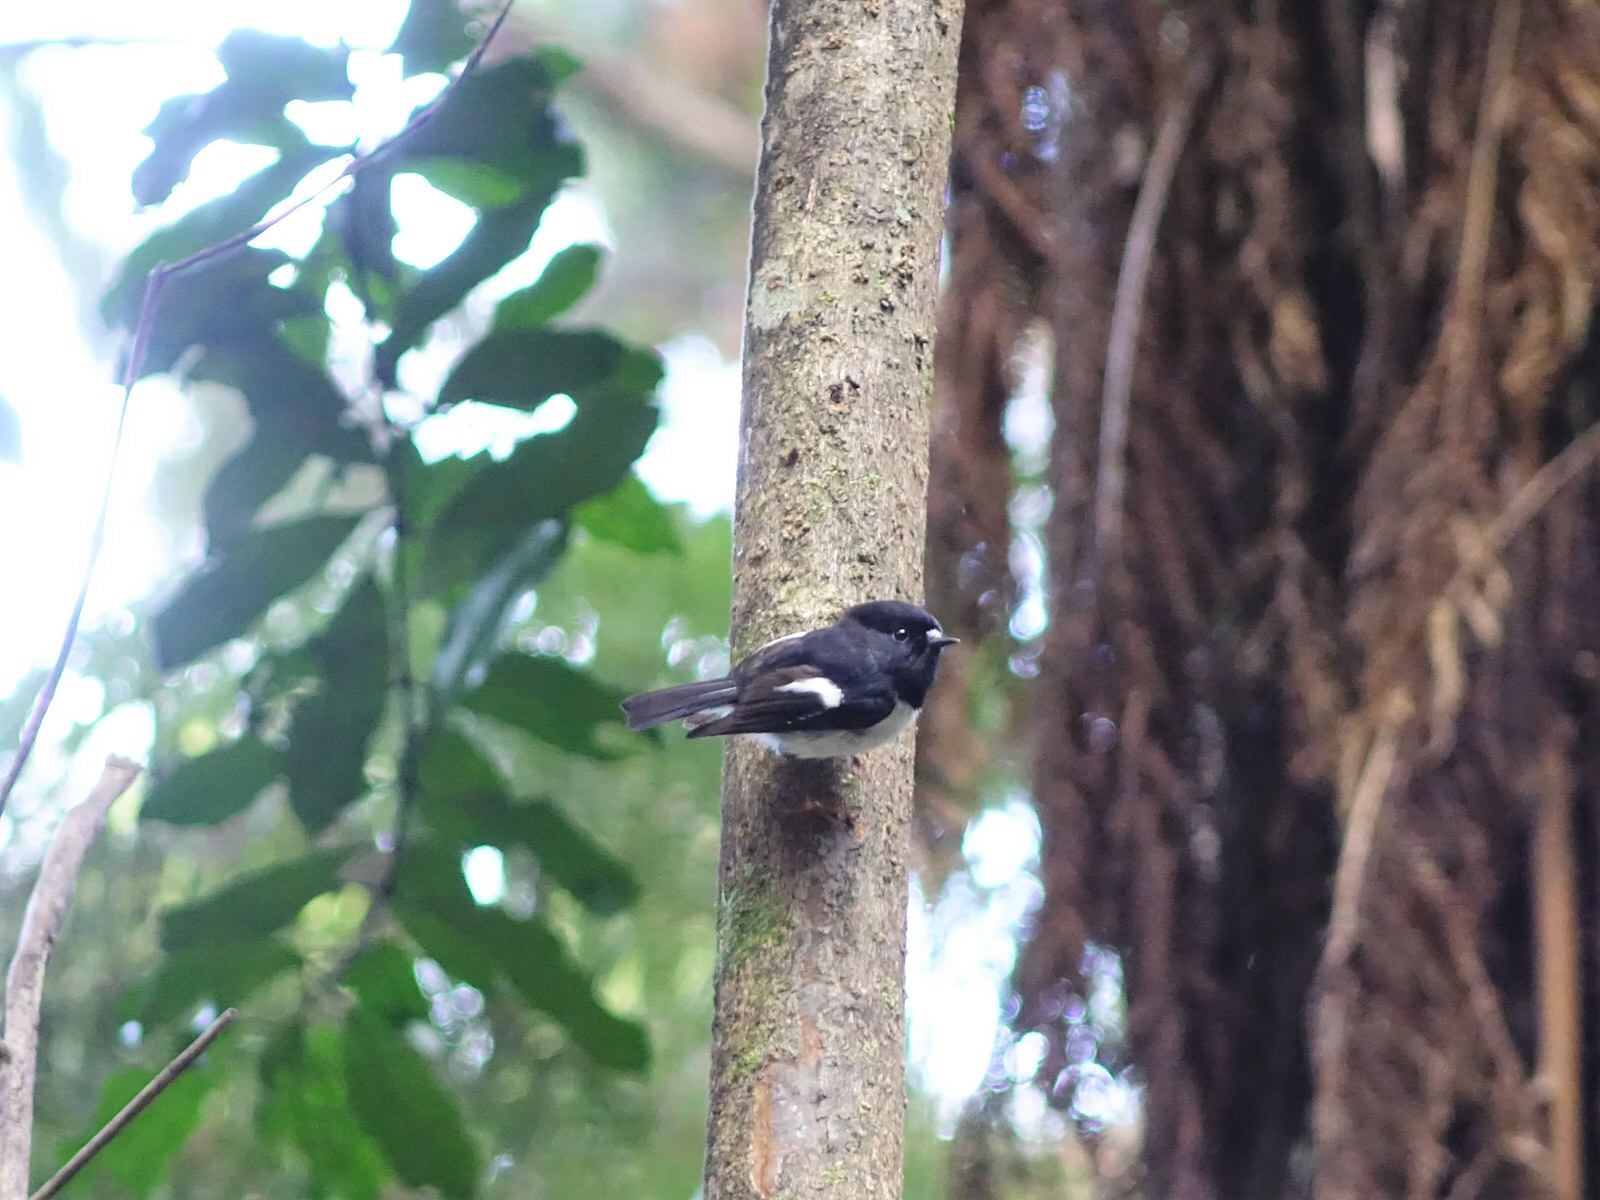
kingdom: Animalia
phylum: Chordata
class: Aves
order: Passeriformes
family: Petroicidae
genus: Petroica
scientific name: Petroica macrocephala
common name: Tomtit
